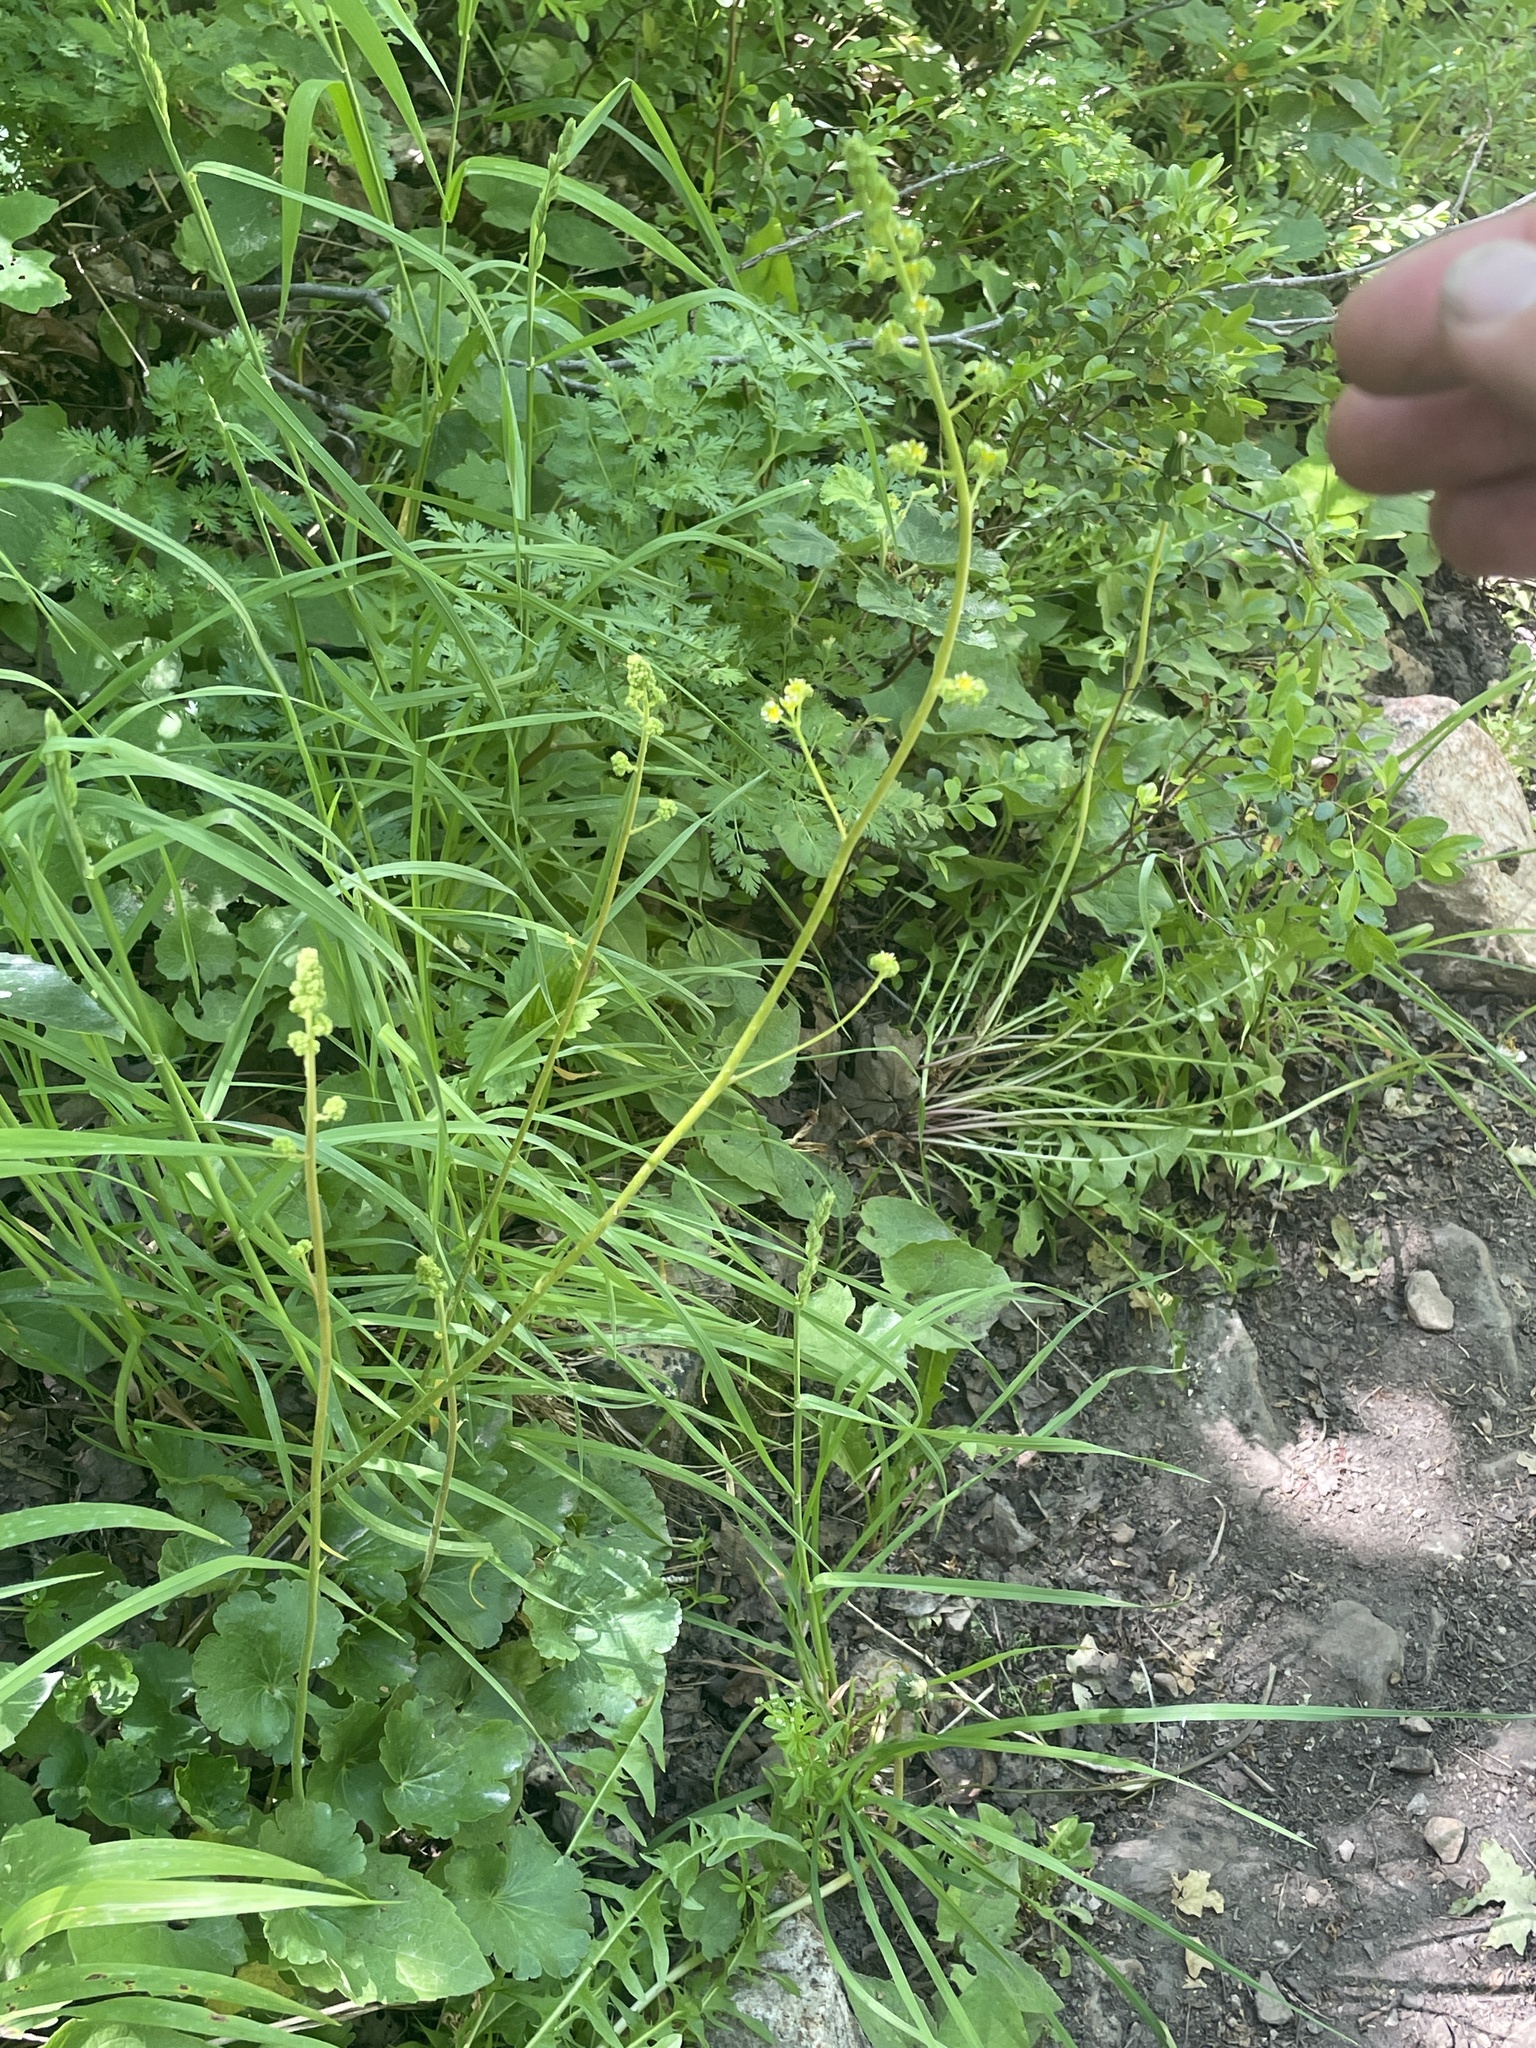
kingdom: Plantae
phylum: Tracheophyta
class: Magnoliopsida
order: Saxifragales
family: Saxifragaceae
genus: Heuchera
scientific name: Heuchera parvifolia
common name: Common alumroot
